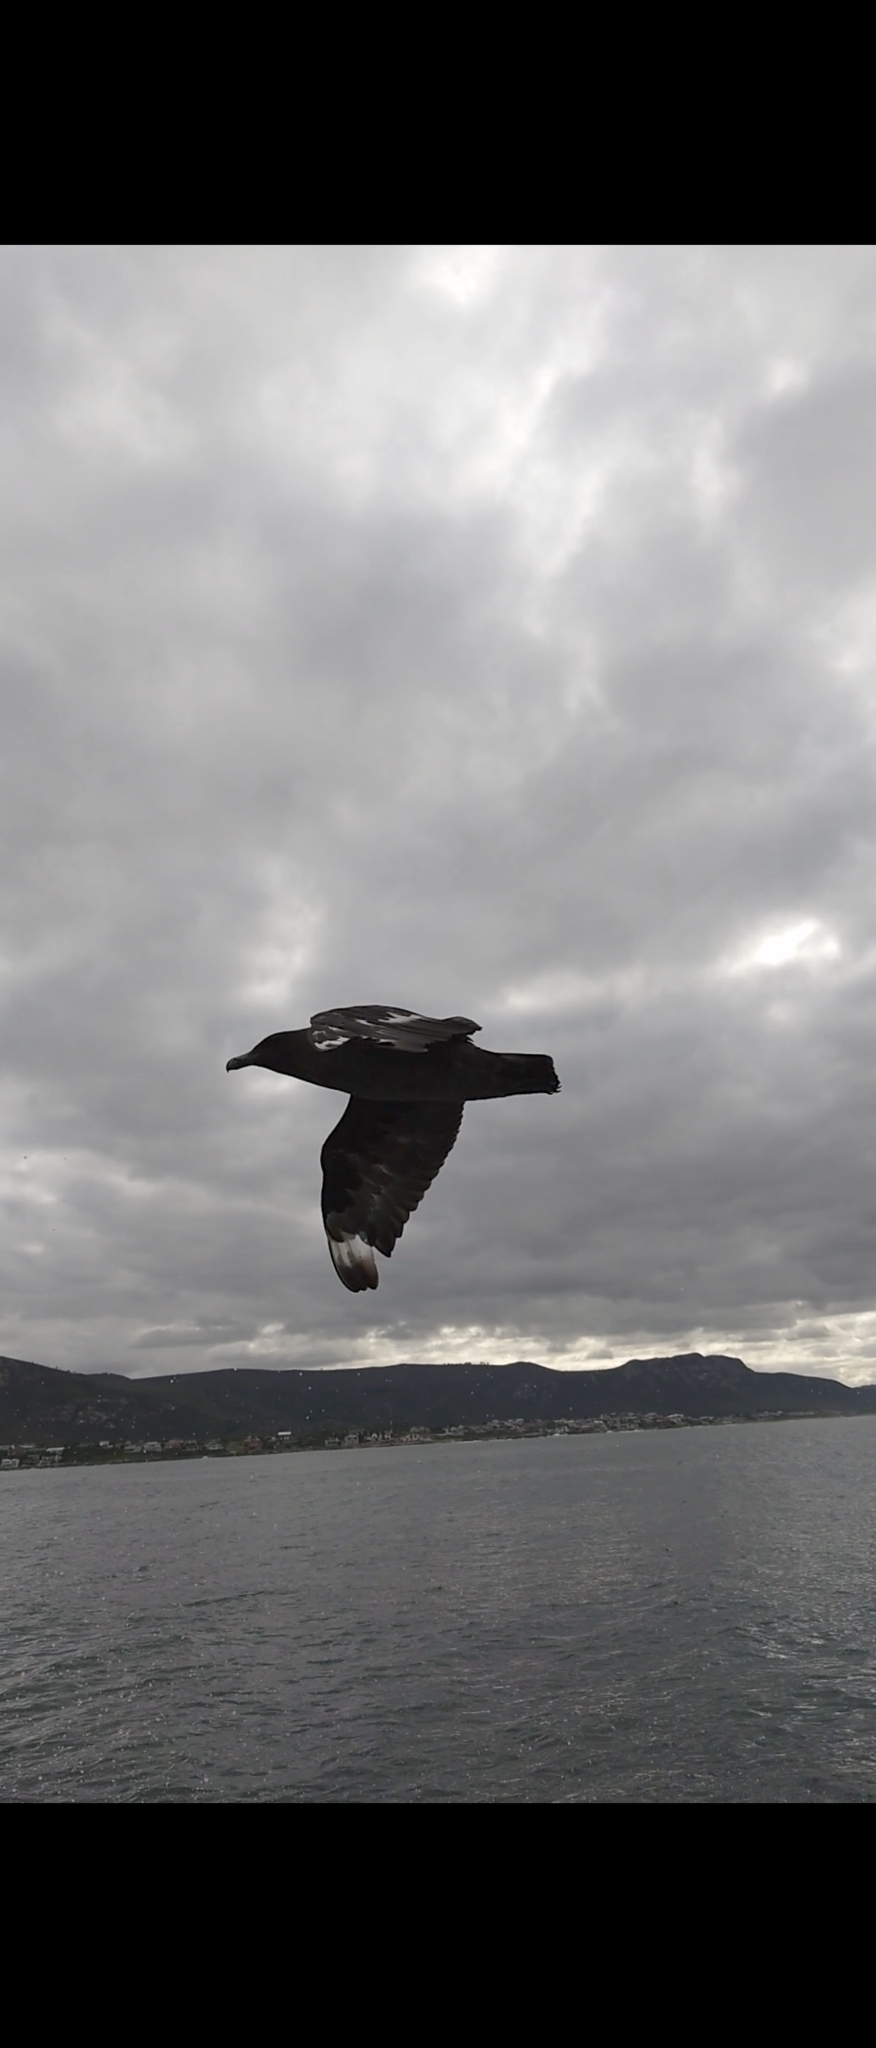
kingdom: Animalia
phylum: Chordata
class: Aves
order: Charadriiformes
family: Stercorariidae
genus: Stercorarius
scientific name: Stercorarius antarcticus
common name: Brown skua
